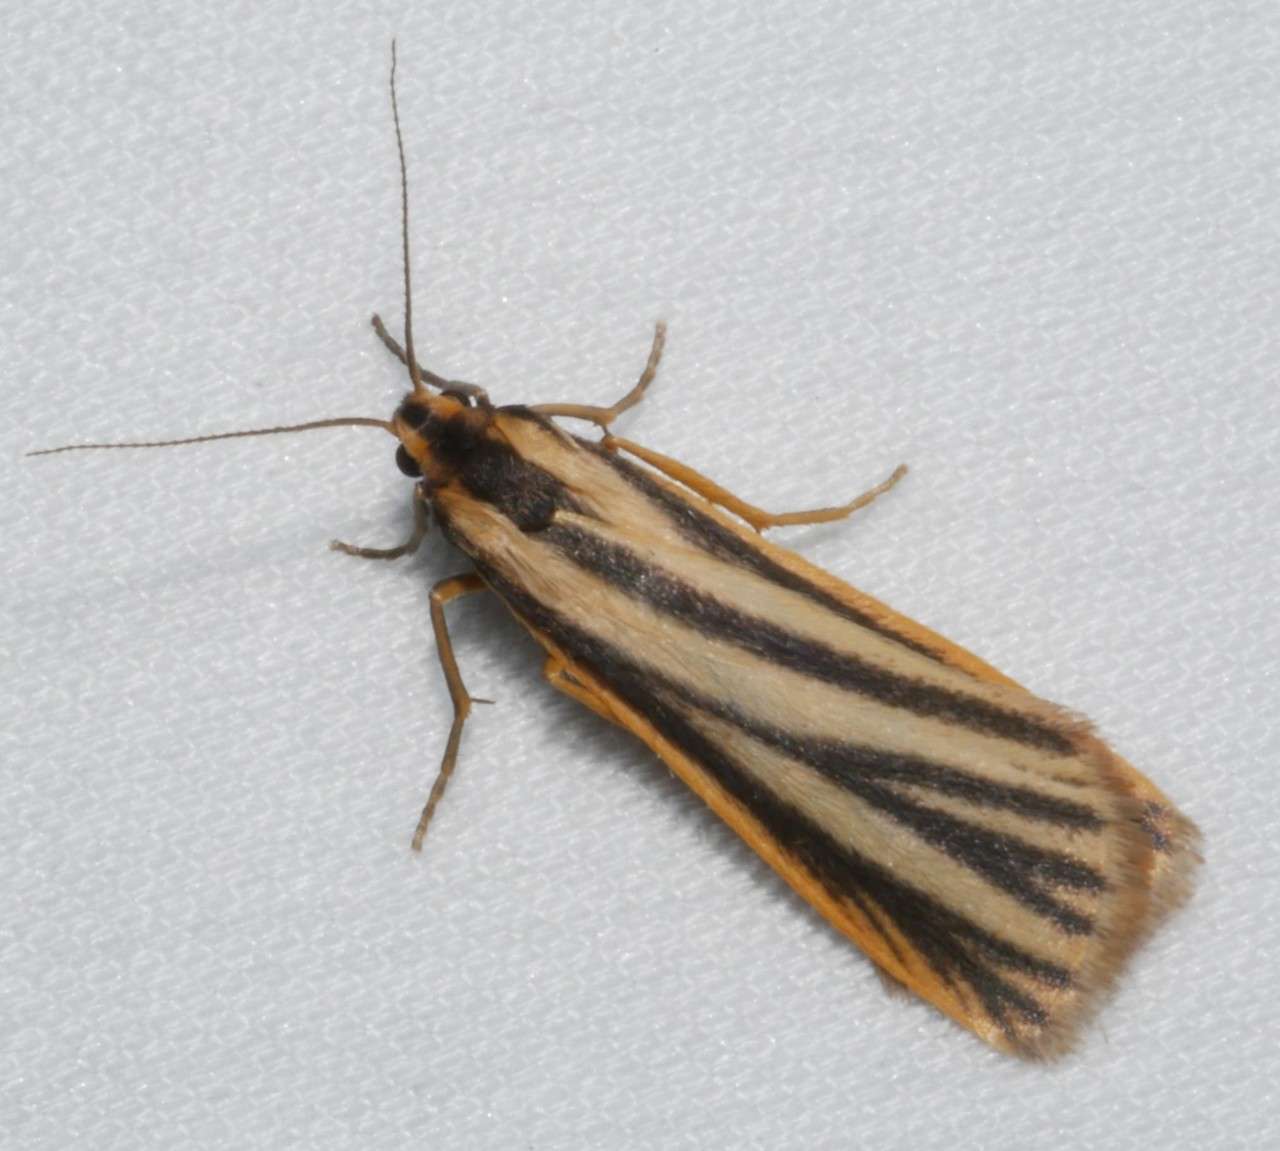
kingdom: Animalia
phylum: Arthropoda
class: Insecta
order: Lepidoptera
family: Erebidae
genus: Phaeophlebosia
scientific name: Phaeophlebosia furcifera
